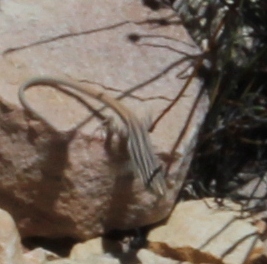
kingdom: Animalia
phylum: Chordata
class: Squamata
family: Lacertidae
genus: Pedioplanis
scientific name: Pedioplanis burchelli
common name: Burchell's sand lizard
